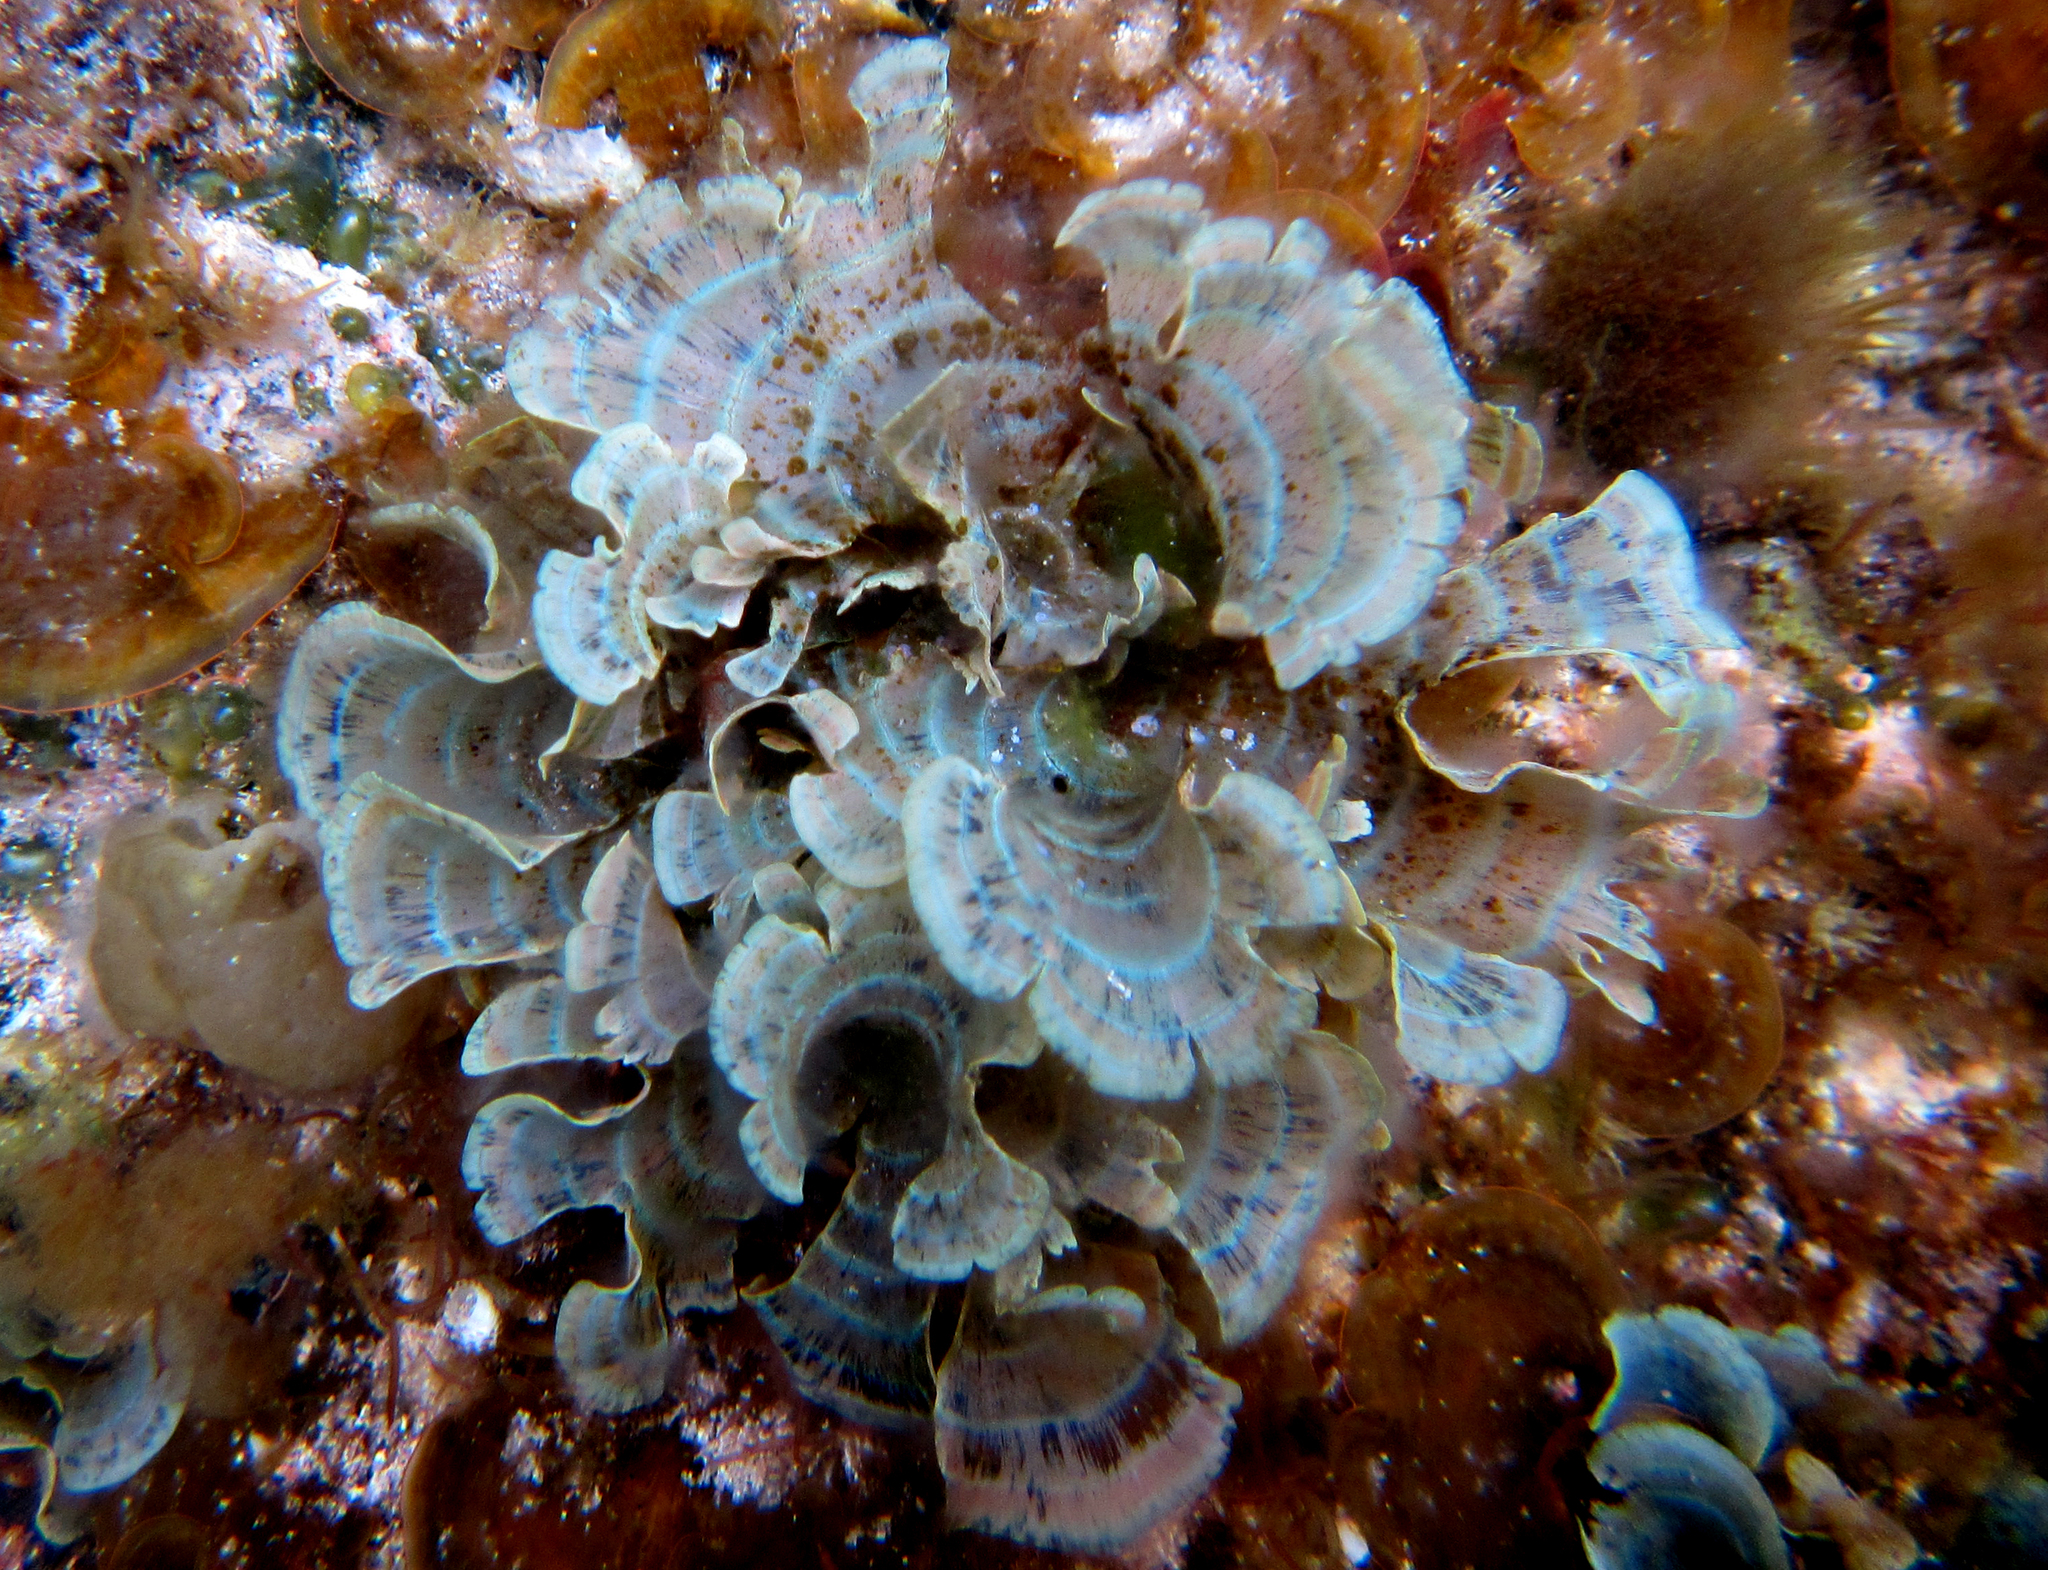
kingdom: Chromista
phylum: Ochrophyta
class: Phaeophyceae
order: Dictyotales
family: Dictyotaceae
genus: Stypopodium
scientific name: Stypopodium flabelliforme
